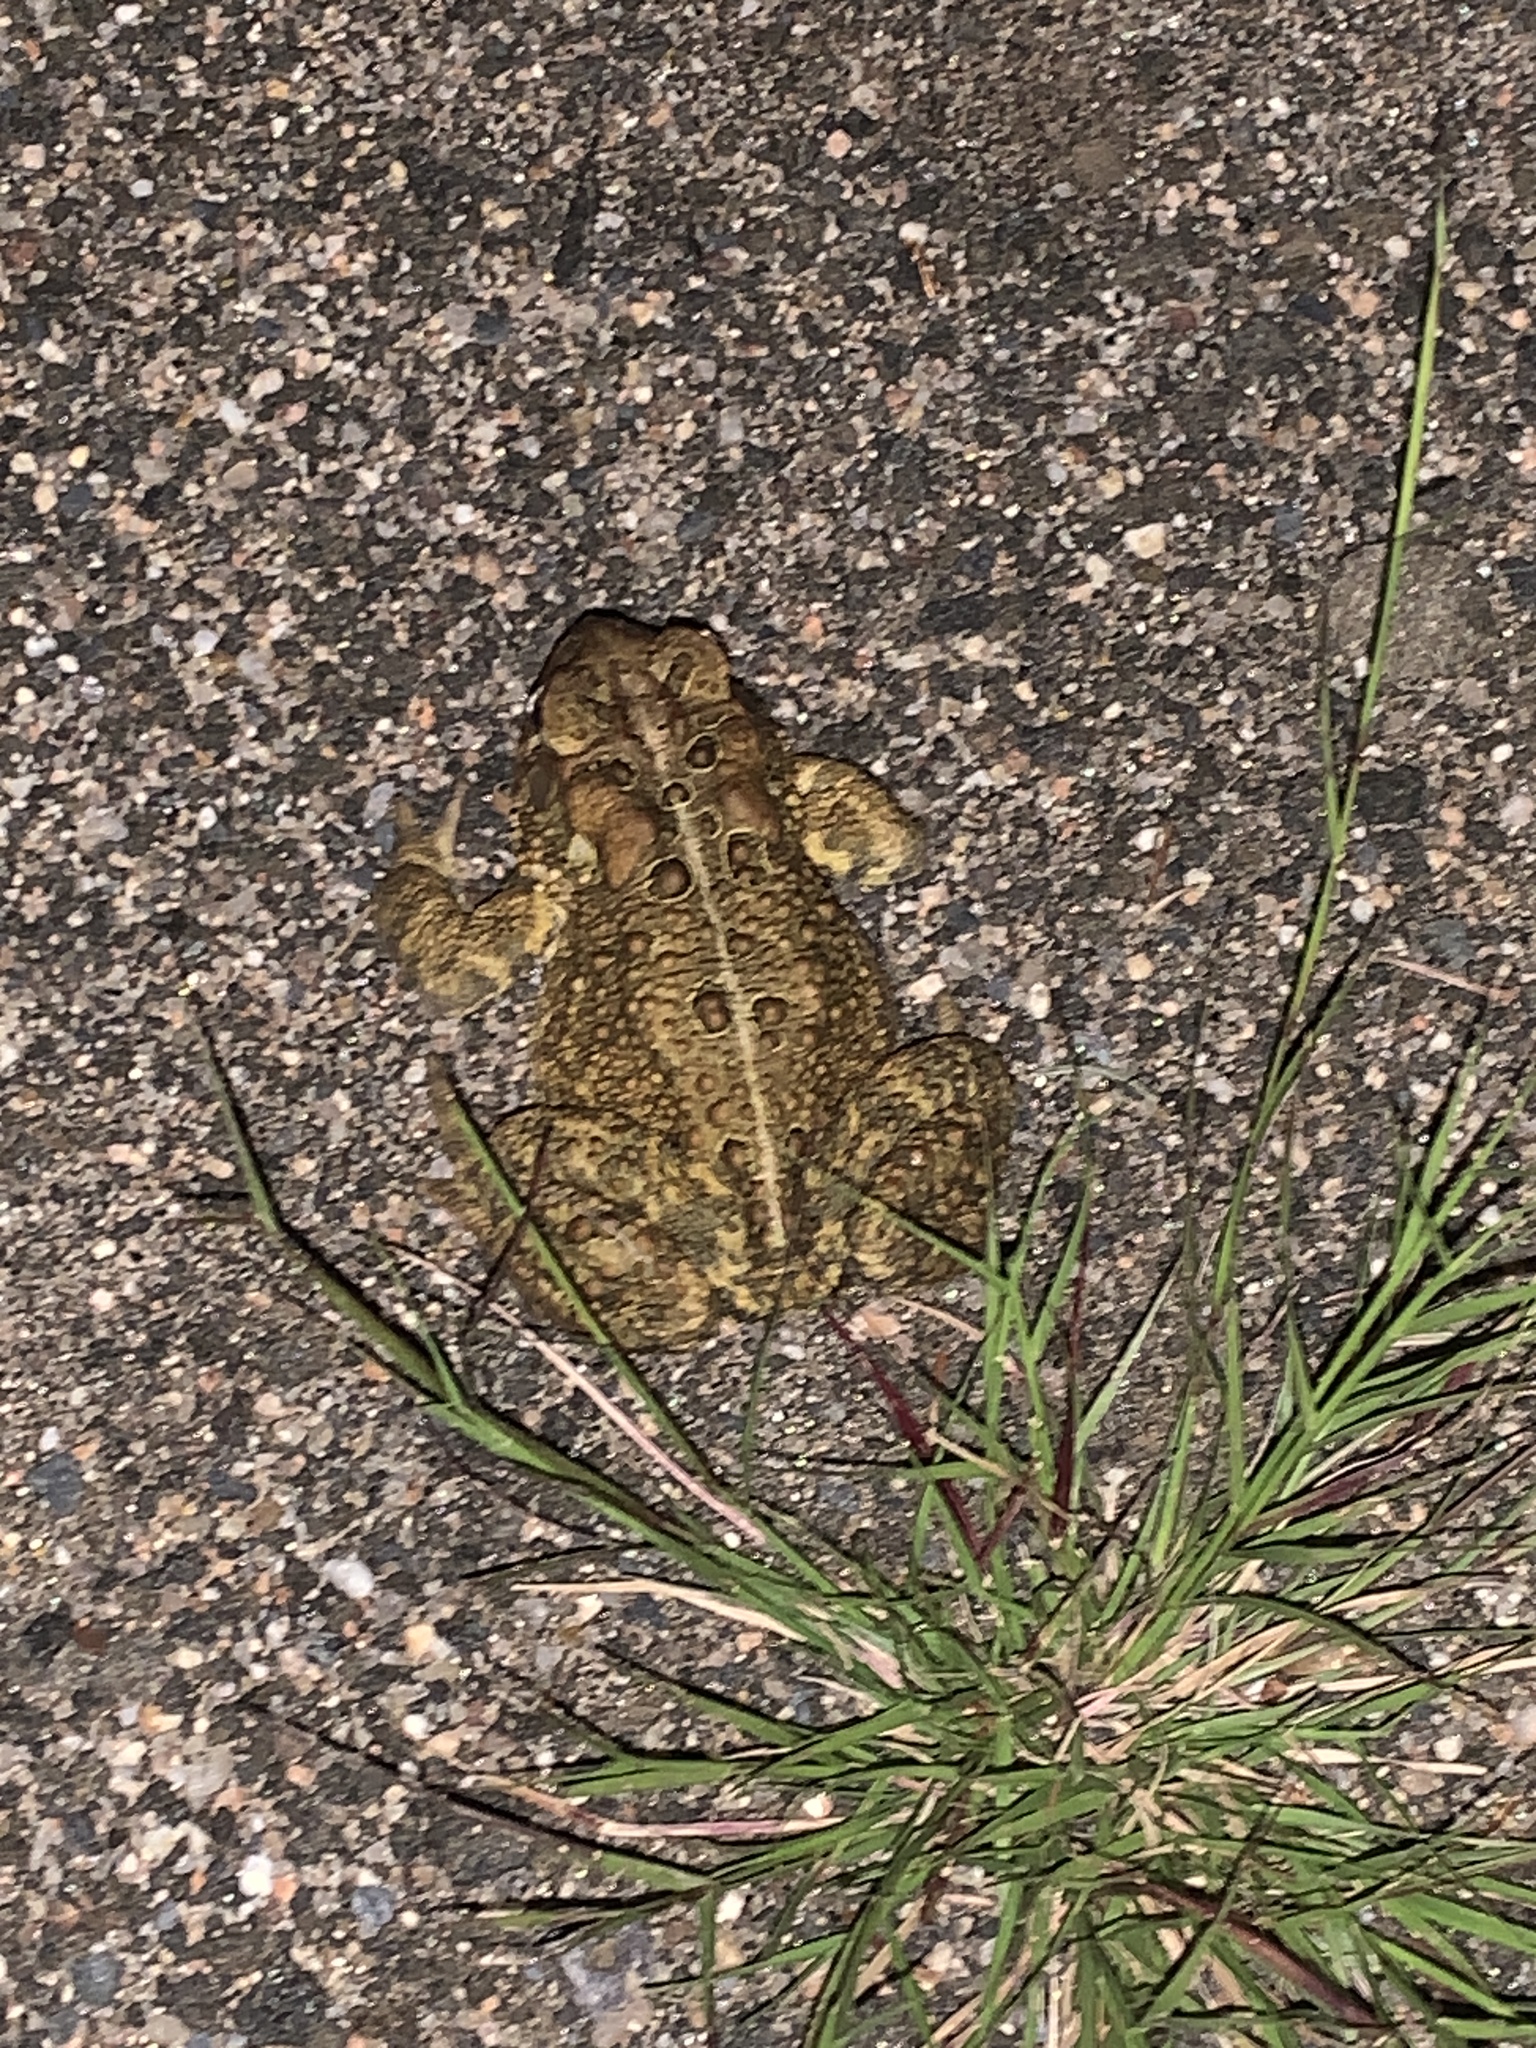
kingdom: Animalia
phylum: Chordata
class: Amphibia
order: Anura
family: Bufonidae
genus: Anaxyrus
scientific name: Anaxyrus americanus
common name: American toad
